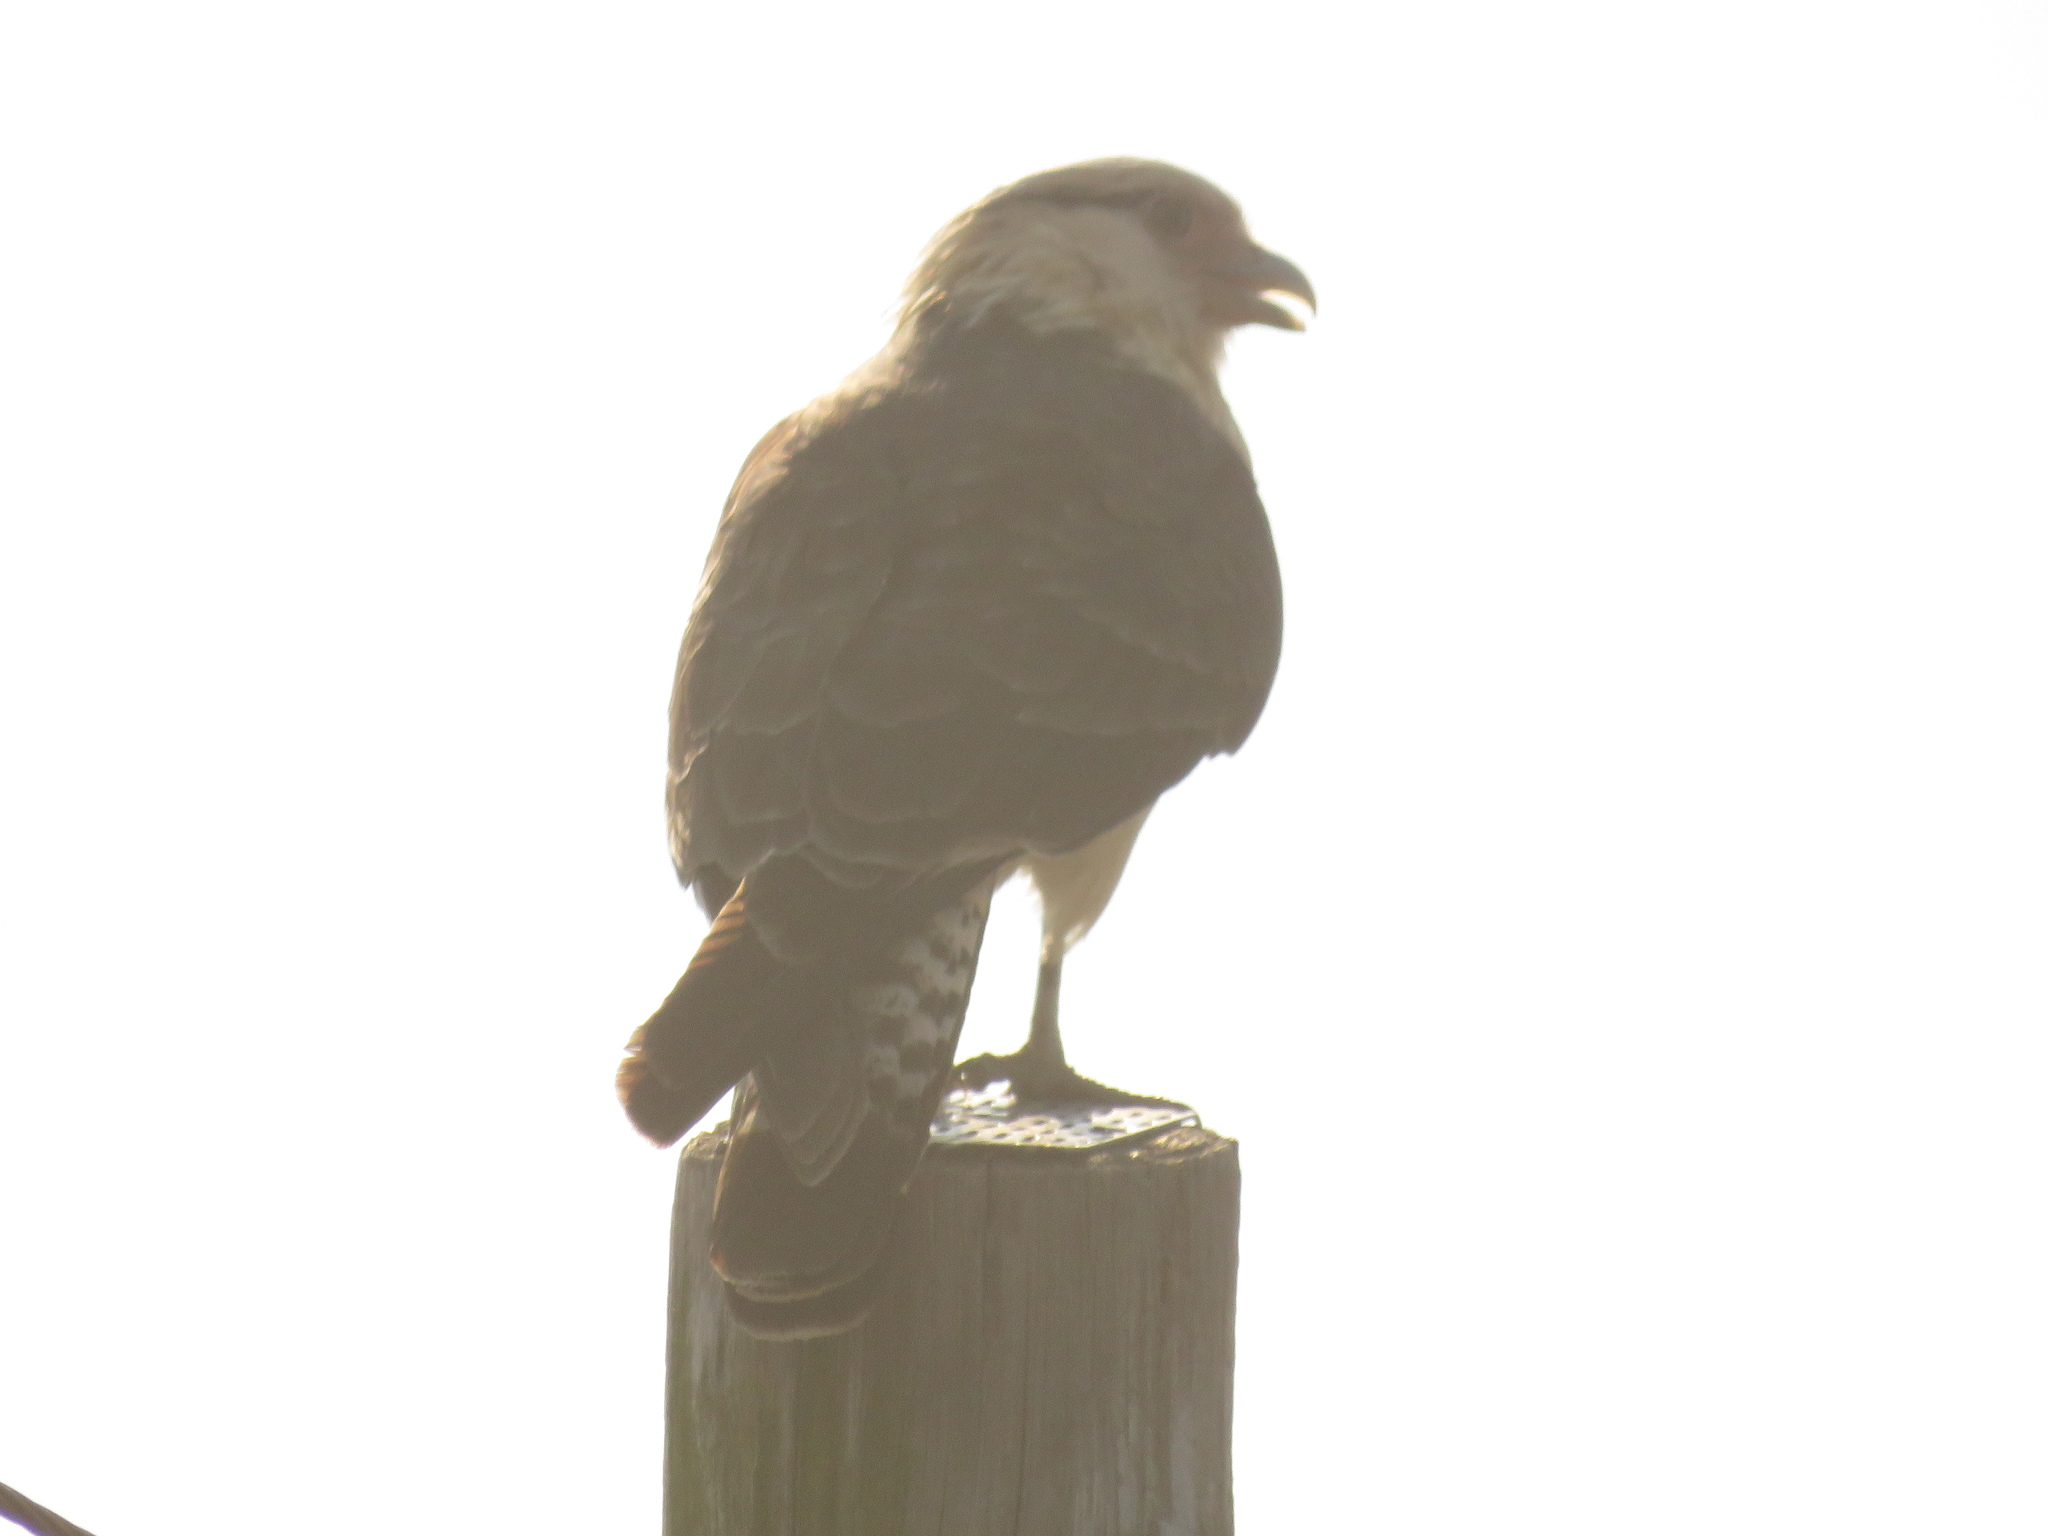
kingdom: Animalia
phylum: Chordata
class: Aves
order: Falconiformes
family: Falconidae
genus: Daptrius
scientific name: Daptrius
